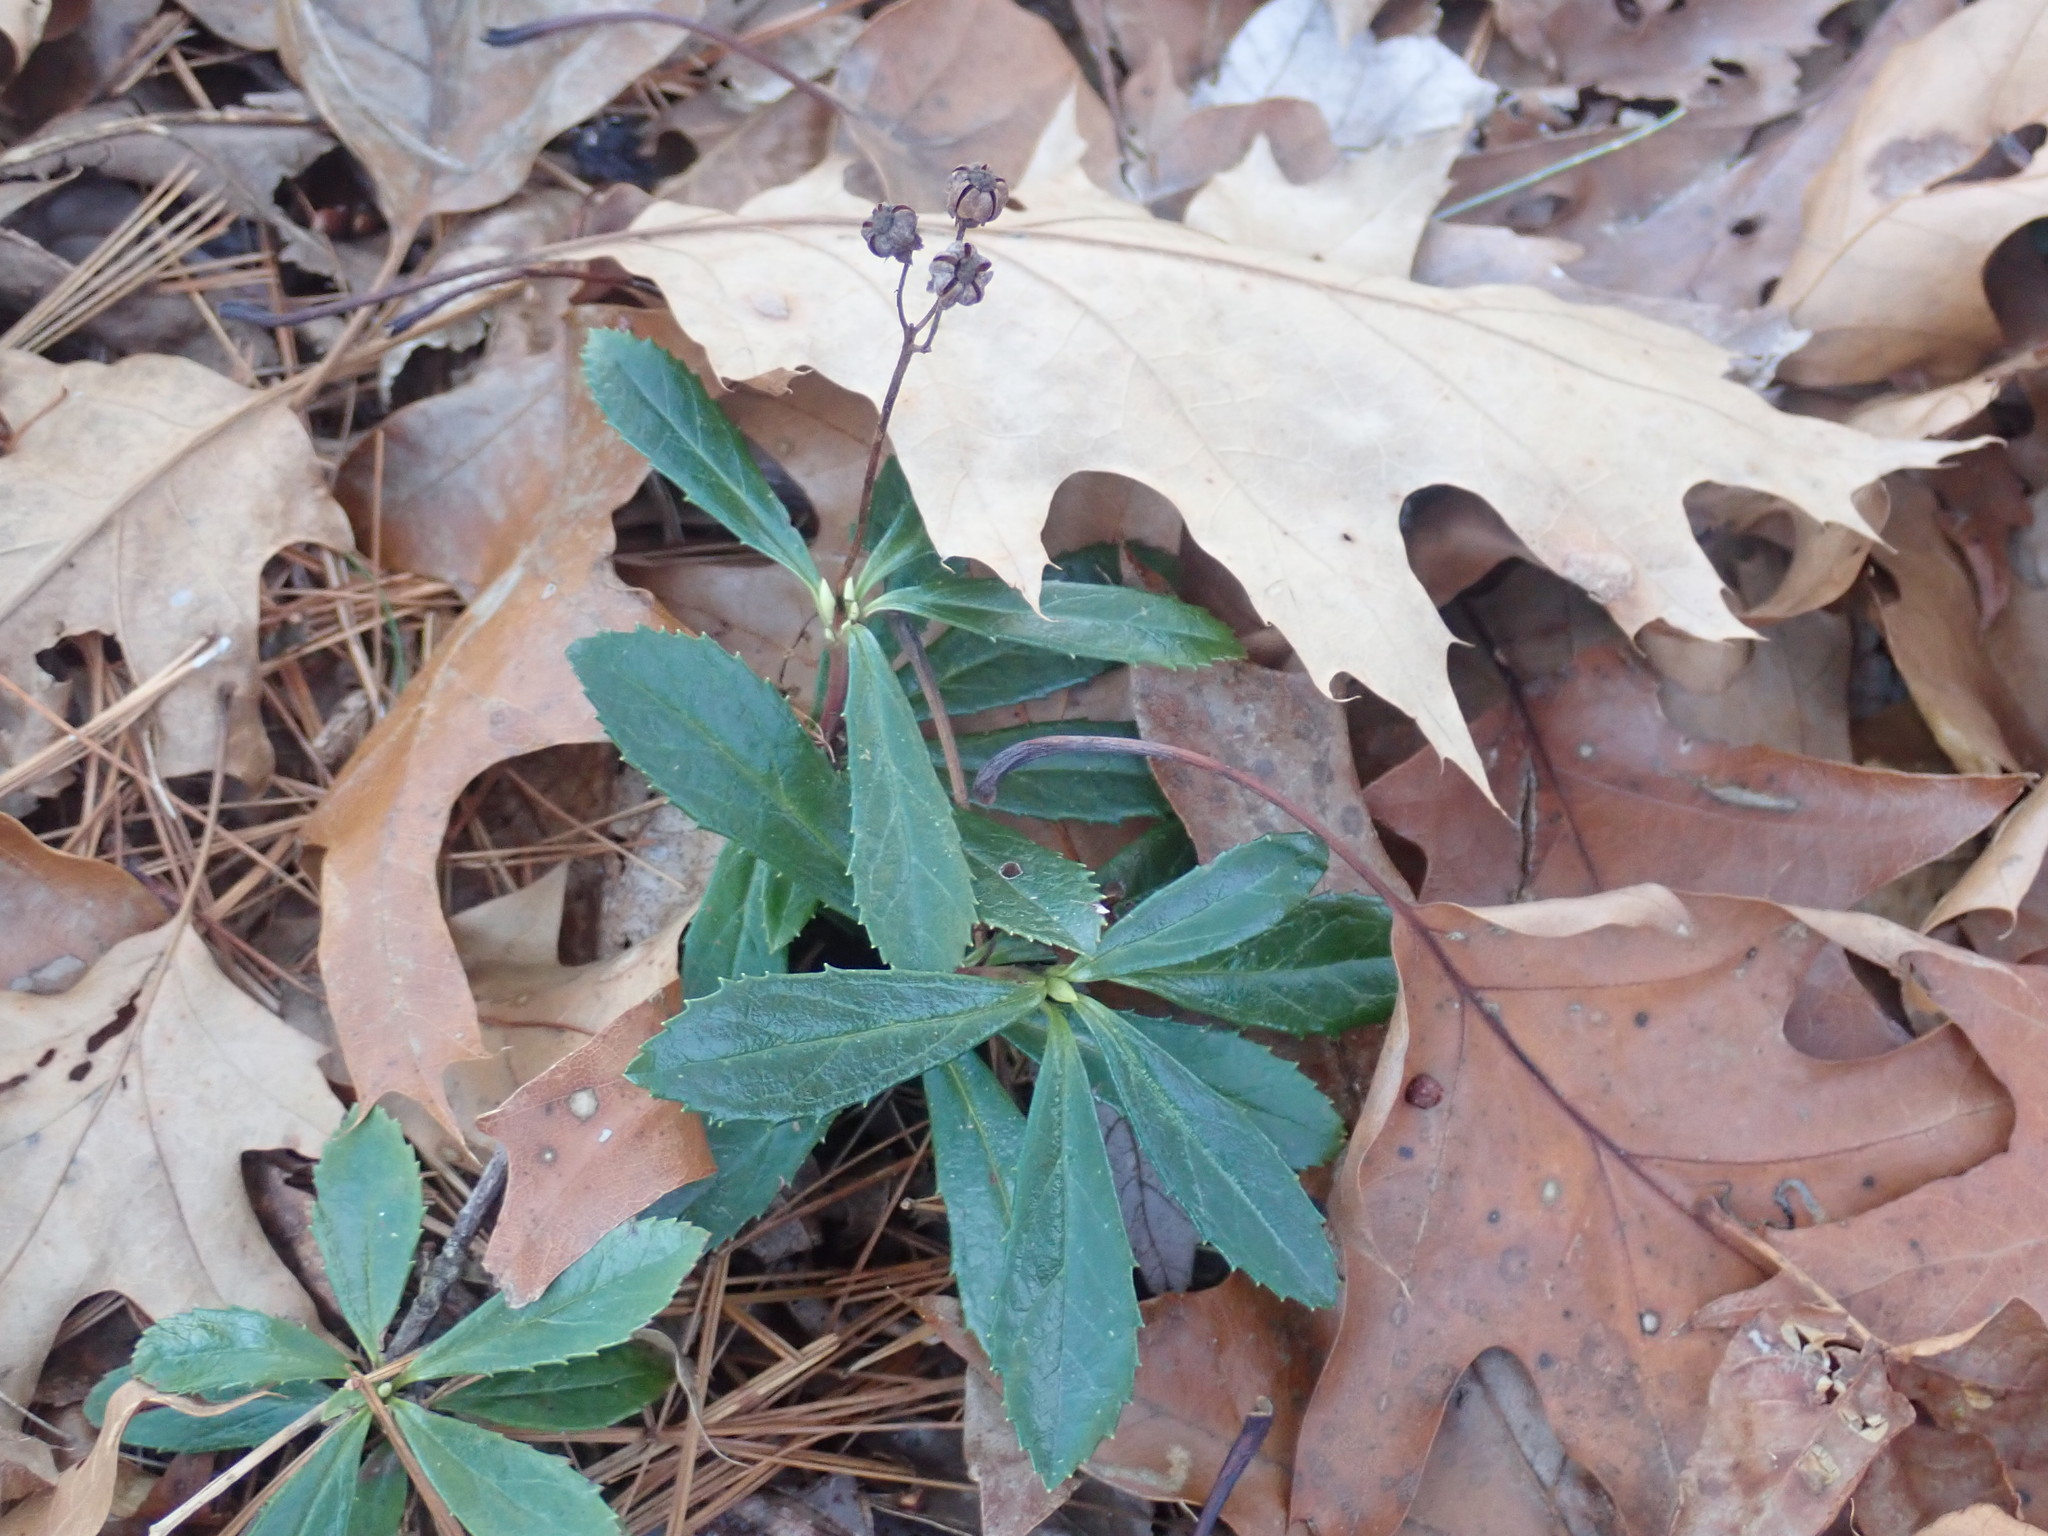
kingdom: Plantae
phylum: Tracheophyta
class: Magnoliopsida
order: Ericales
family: Ericaceae
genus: Chimaphila
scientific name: Chimaphila umbellata
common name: Pipsissewa
